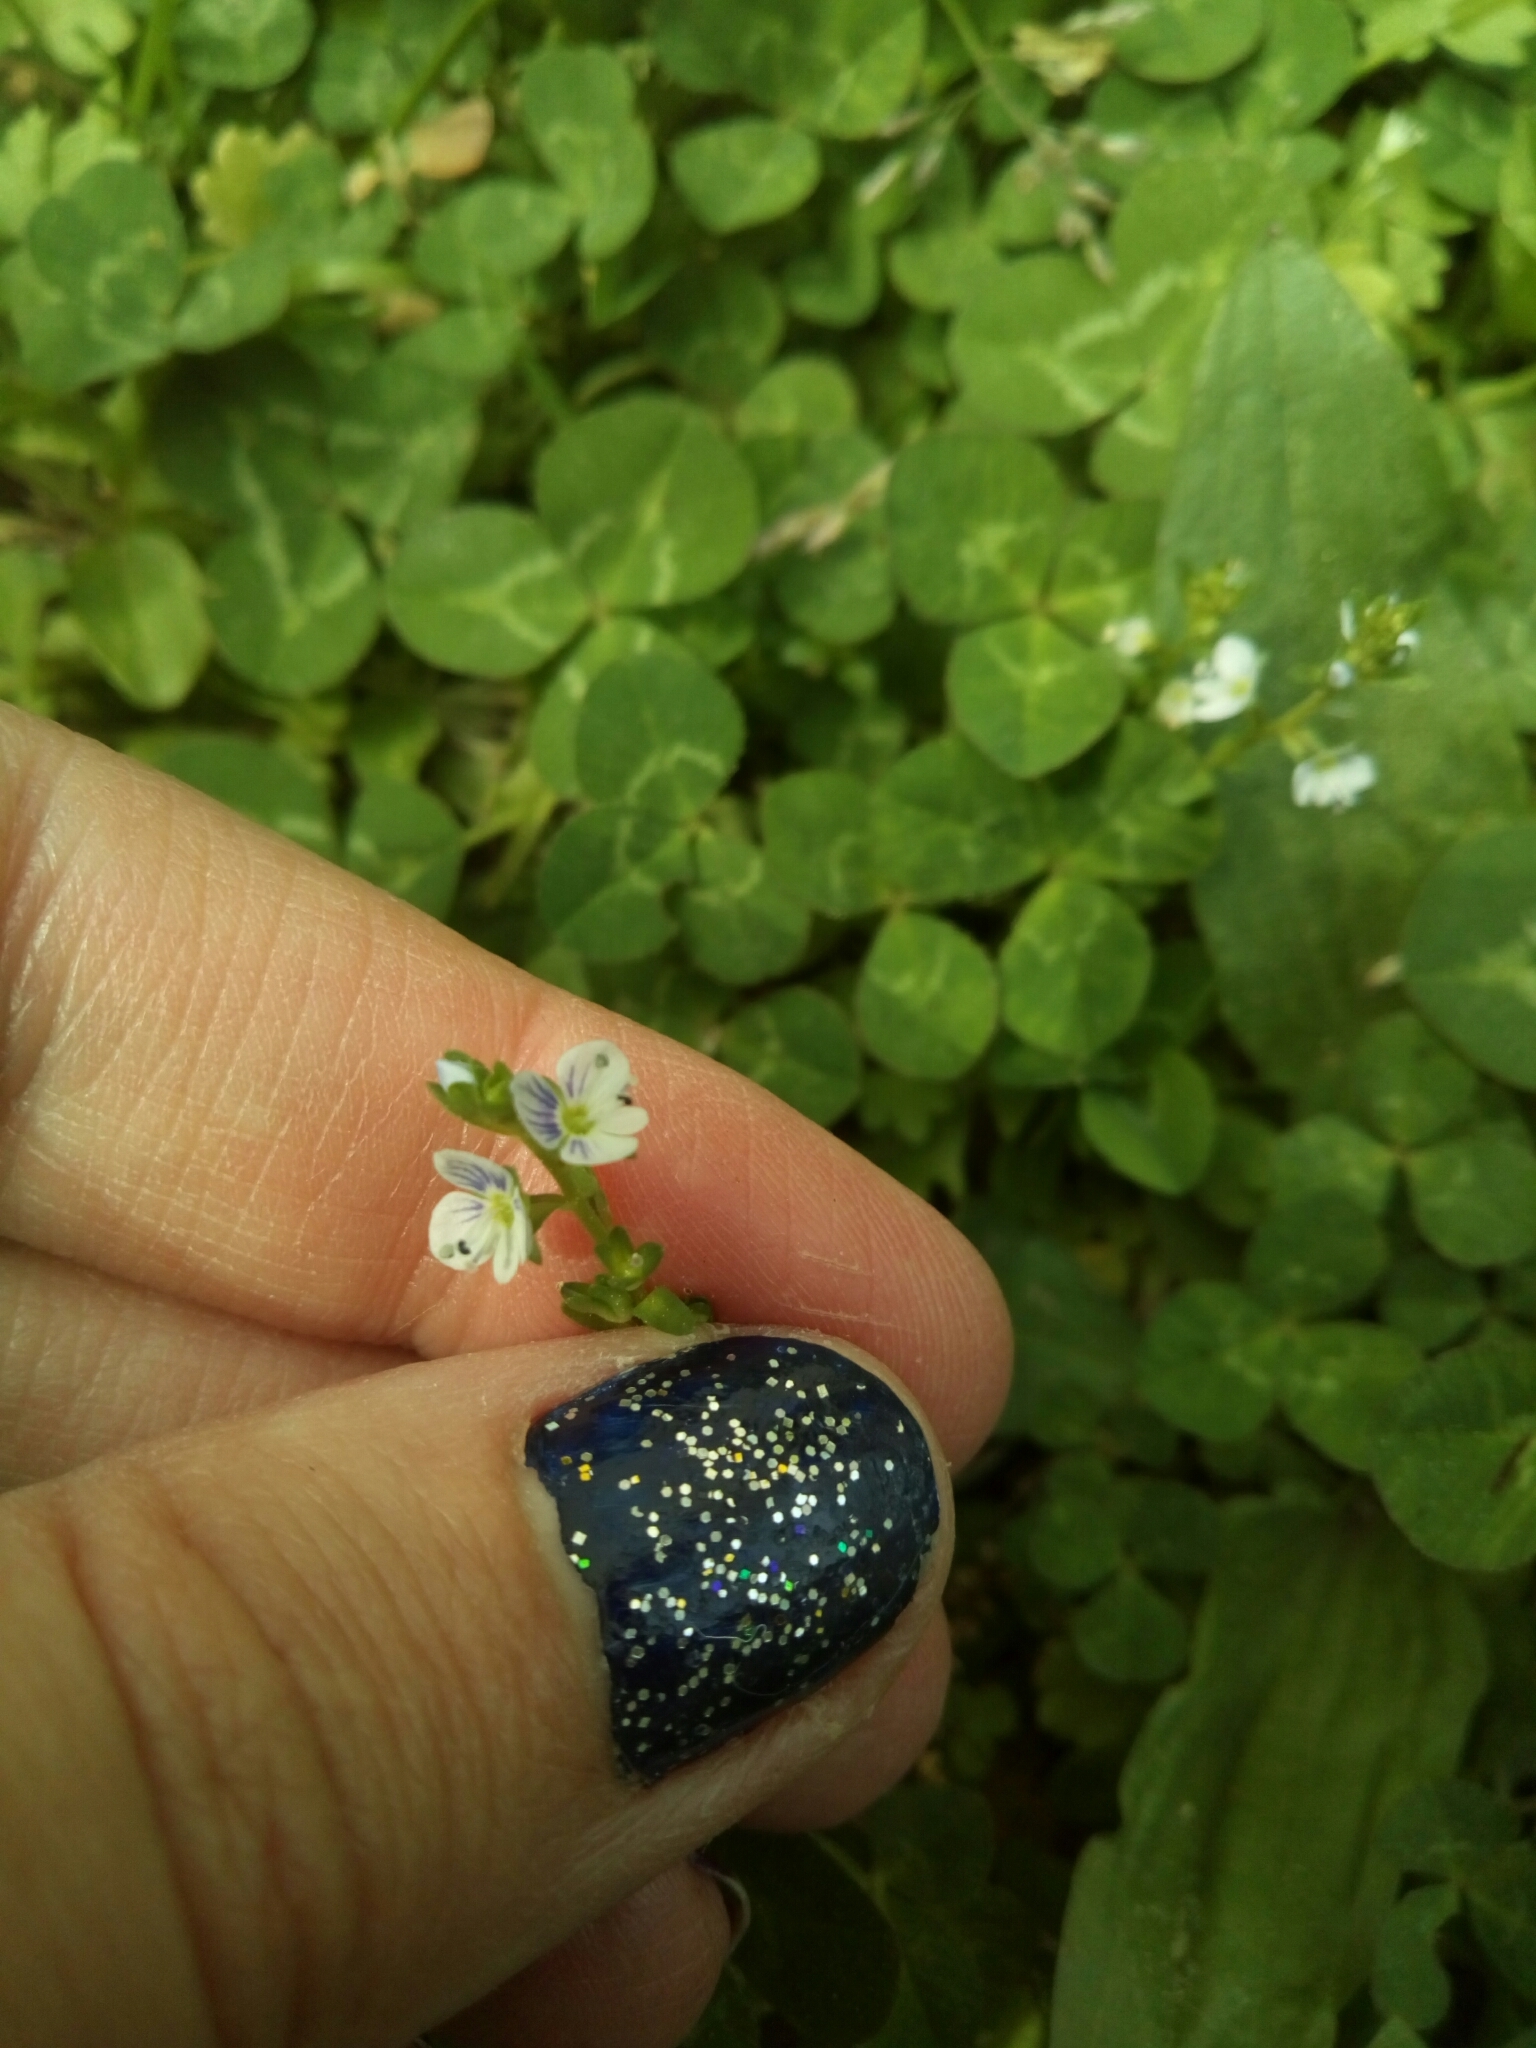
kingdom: Plantae
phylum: Tracheophyta
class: Magnoliopsida
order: Lamiales
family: Plantaginaceae
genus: Veronica
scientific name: Veronica serpyllifolia
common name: Thyme-leaved speedwell
